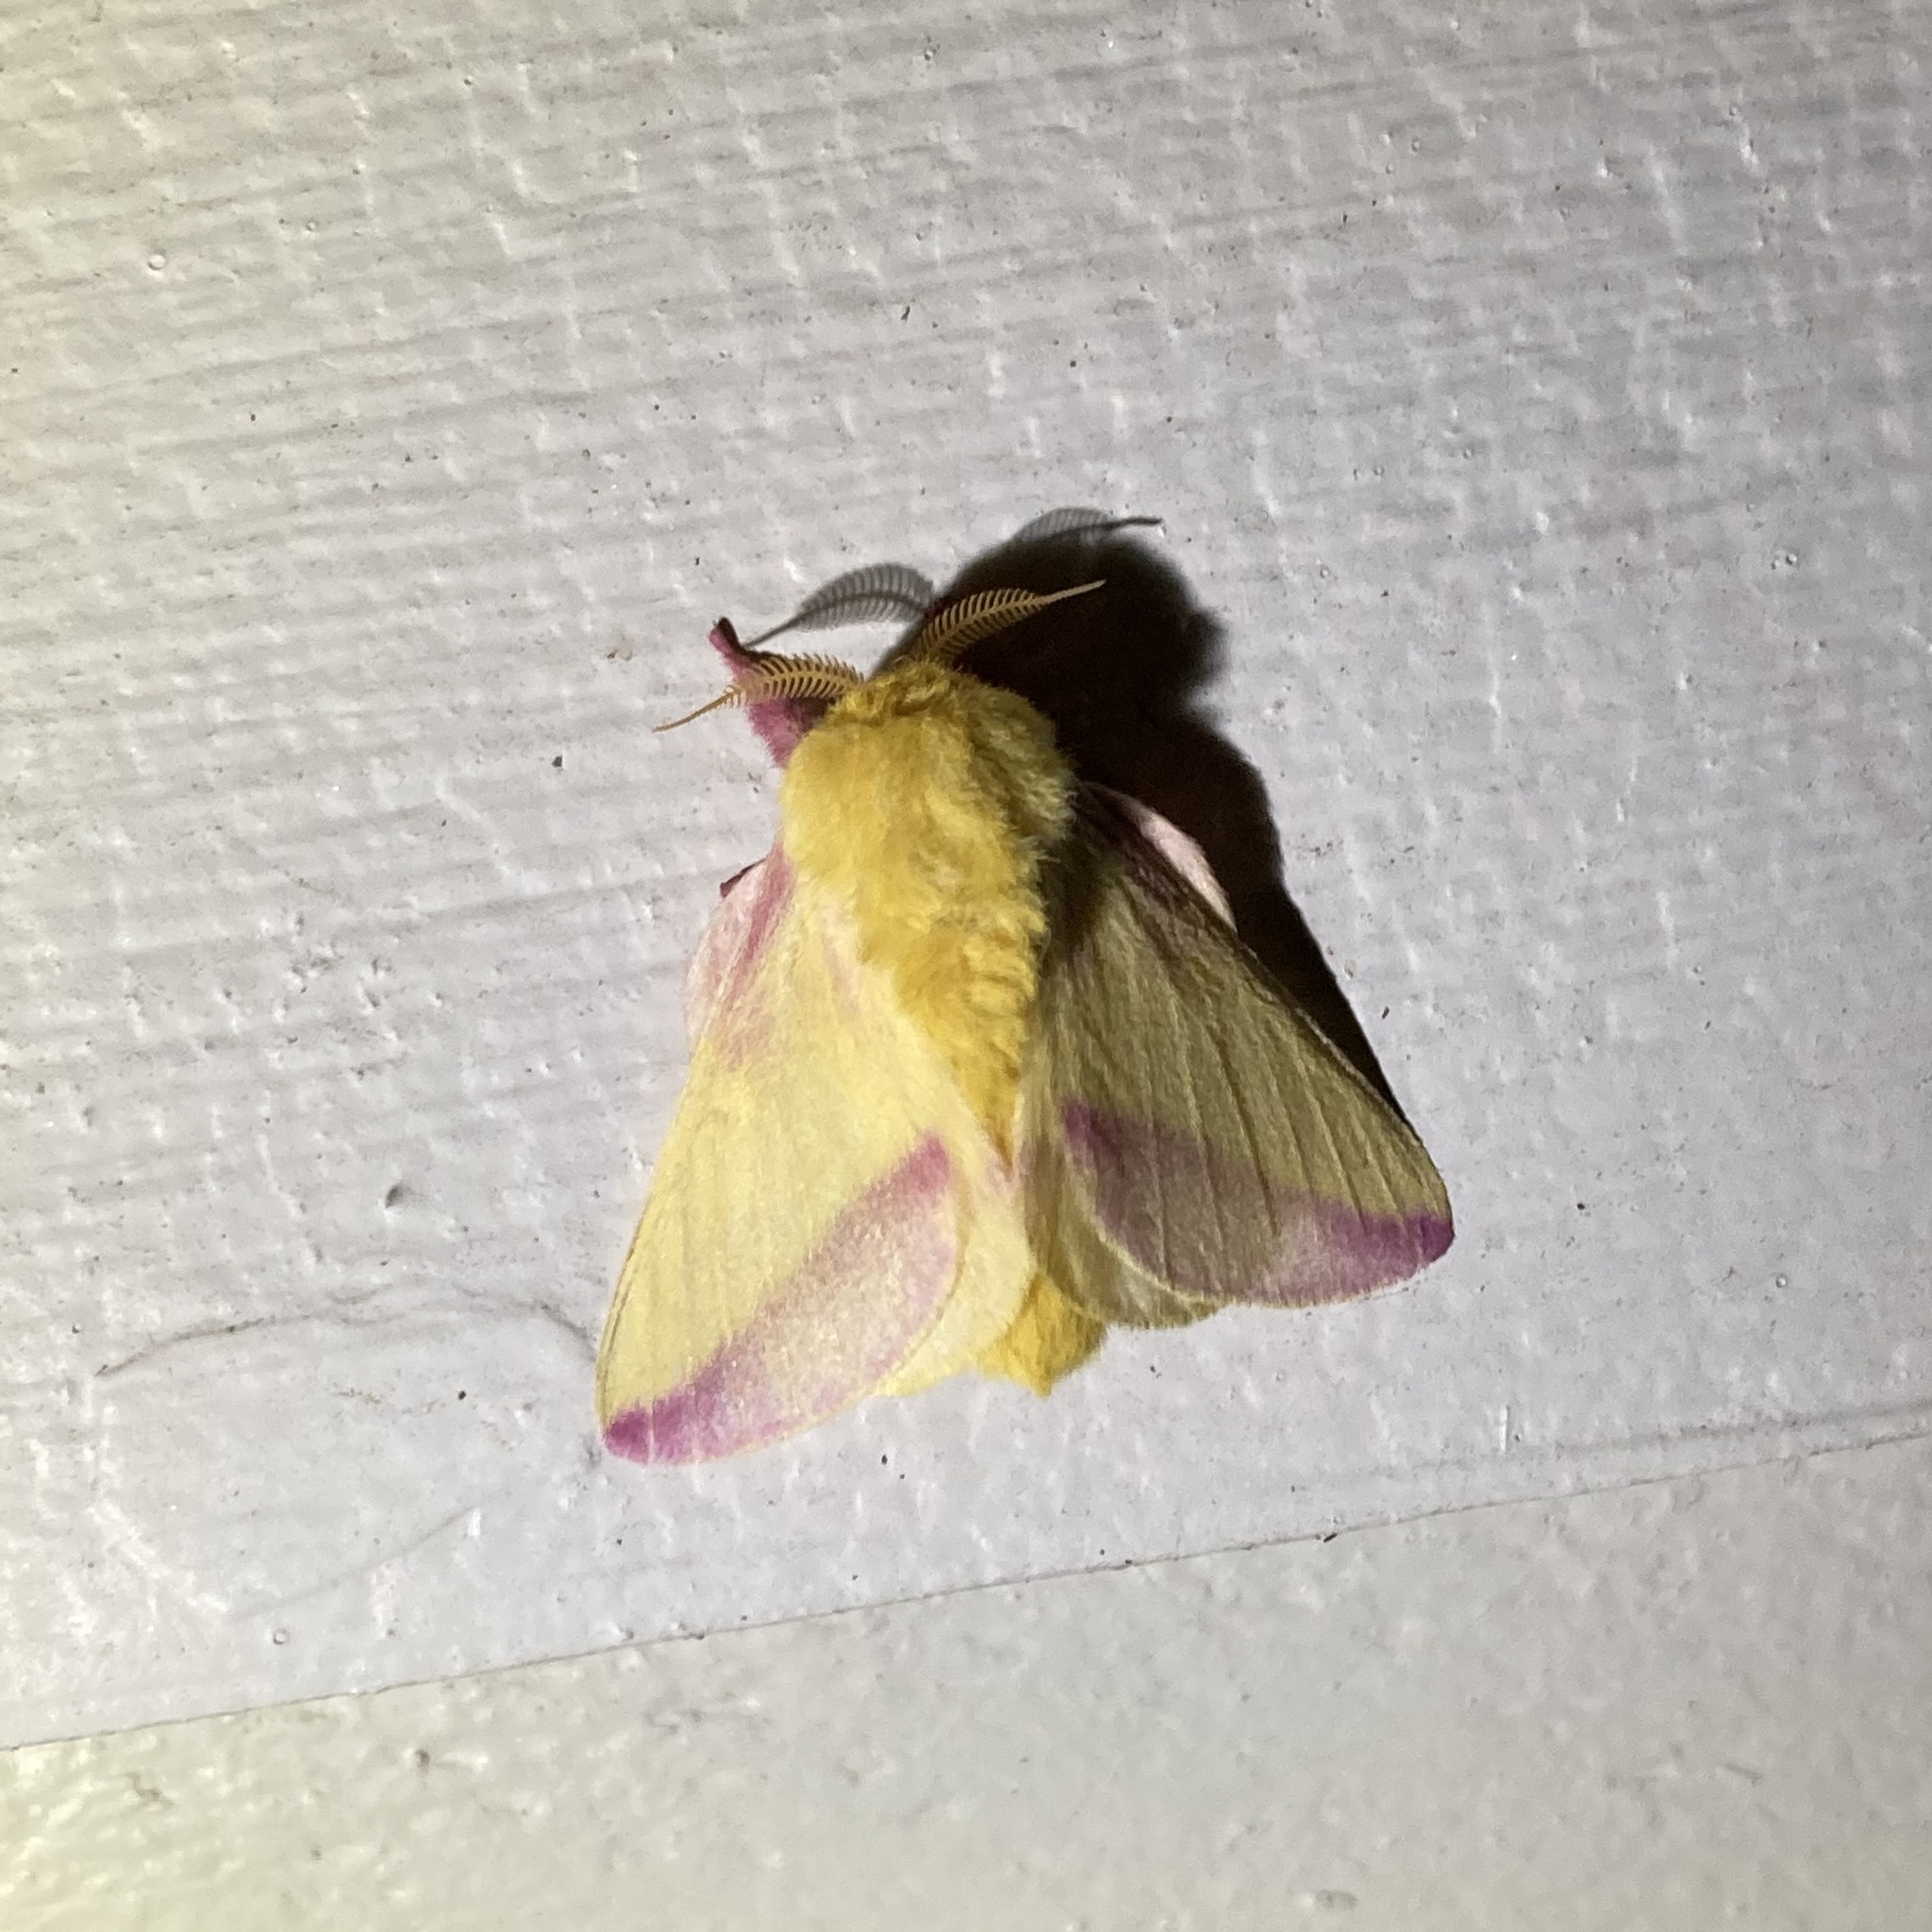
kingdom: Animalia
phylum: Arthropoda
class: Insecta
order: Lepidoptera
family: Saturniidae
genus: Dryocampa
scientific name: Dryocampa rubicunda
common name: Rosy maple moth
